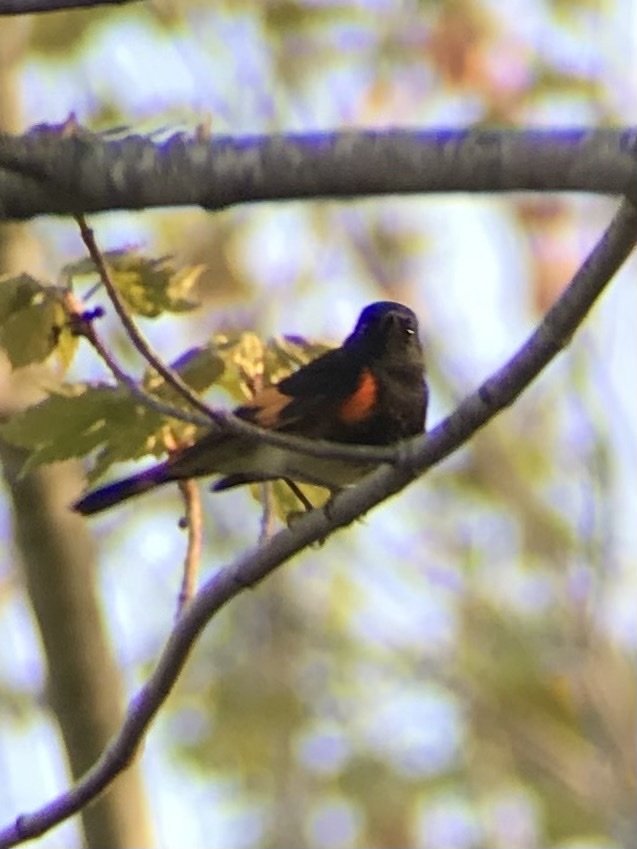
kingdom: Animalia
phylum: Chordata
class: Aves
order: Passeriformes
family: Parulidae
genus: Setophaga
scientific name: Setophaga ruticilla
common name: American redstart
